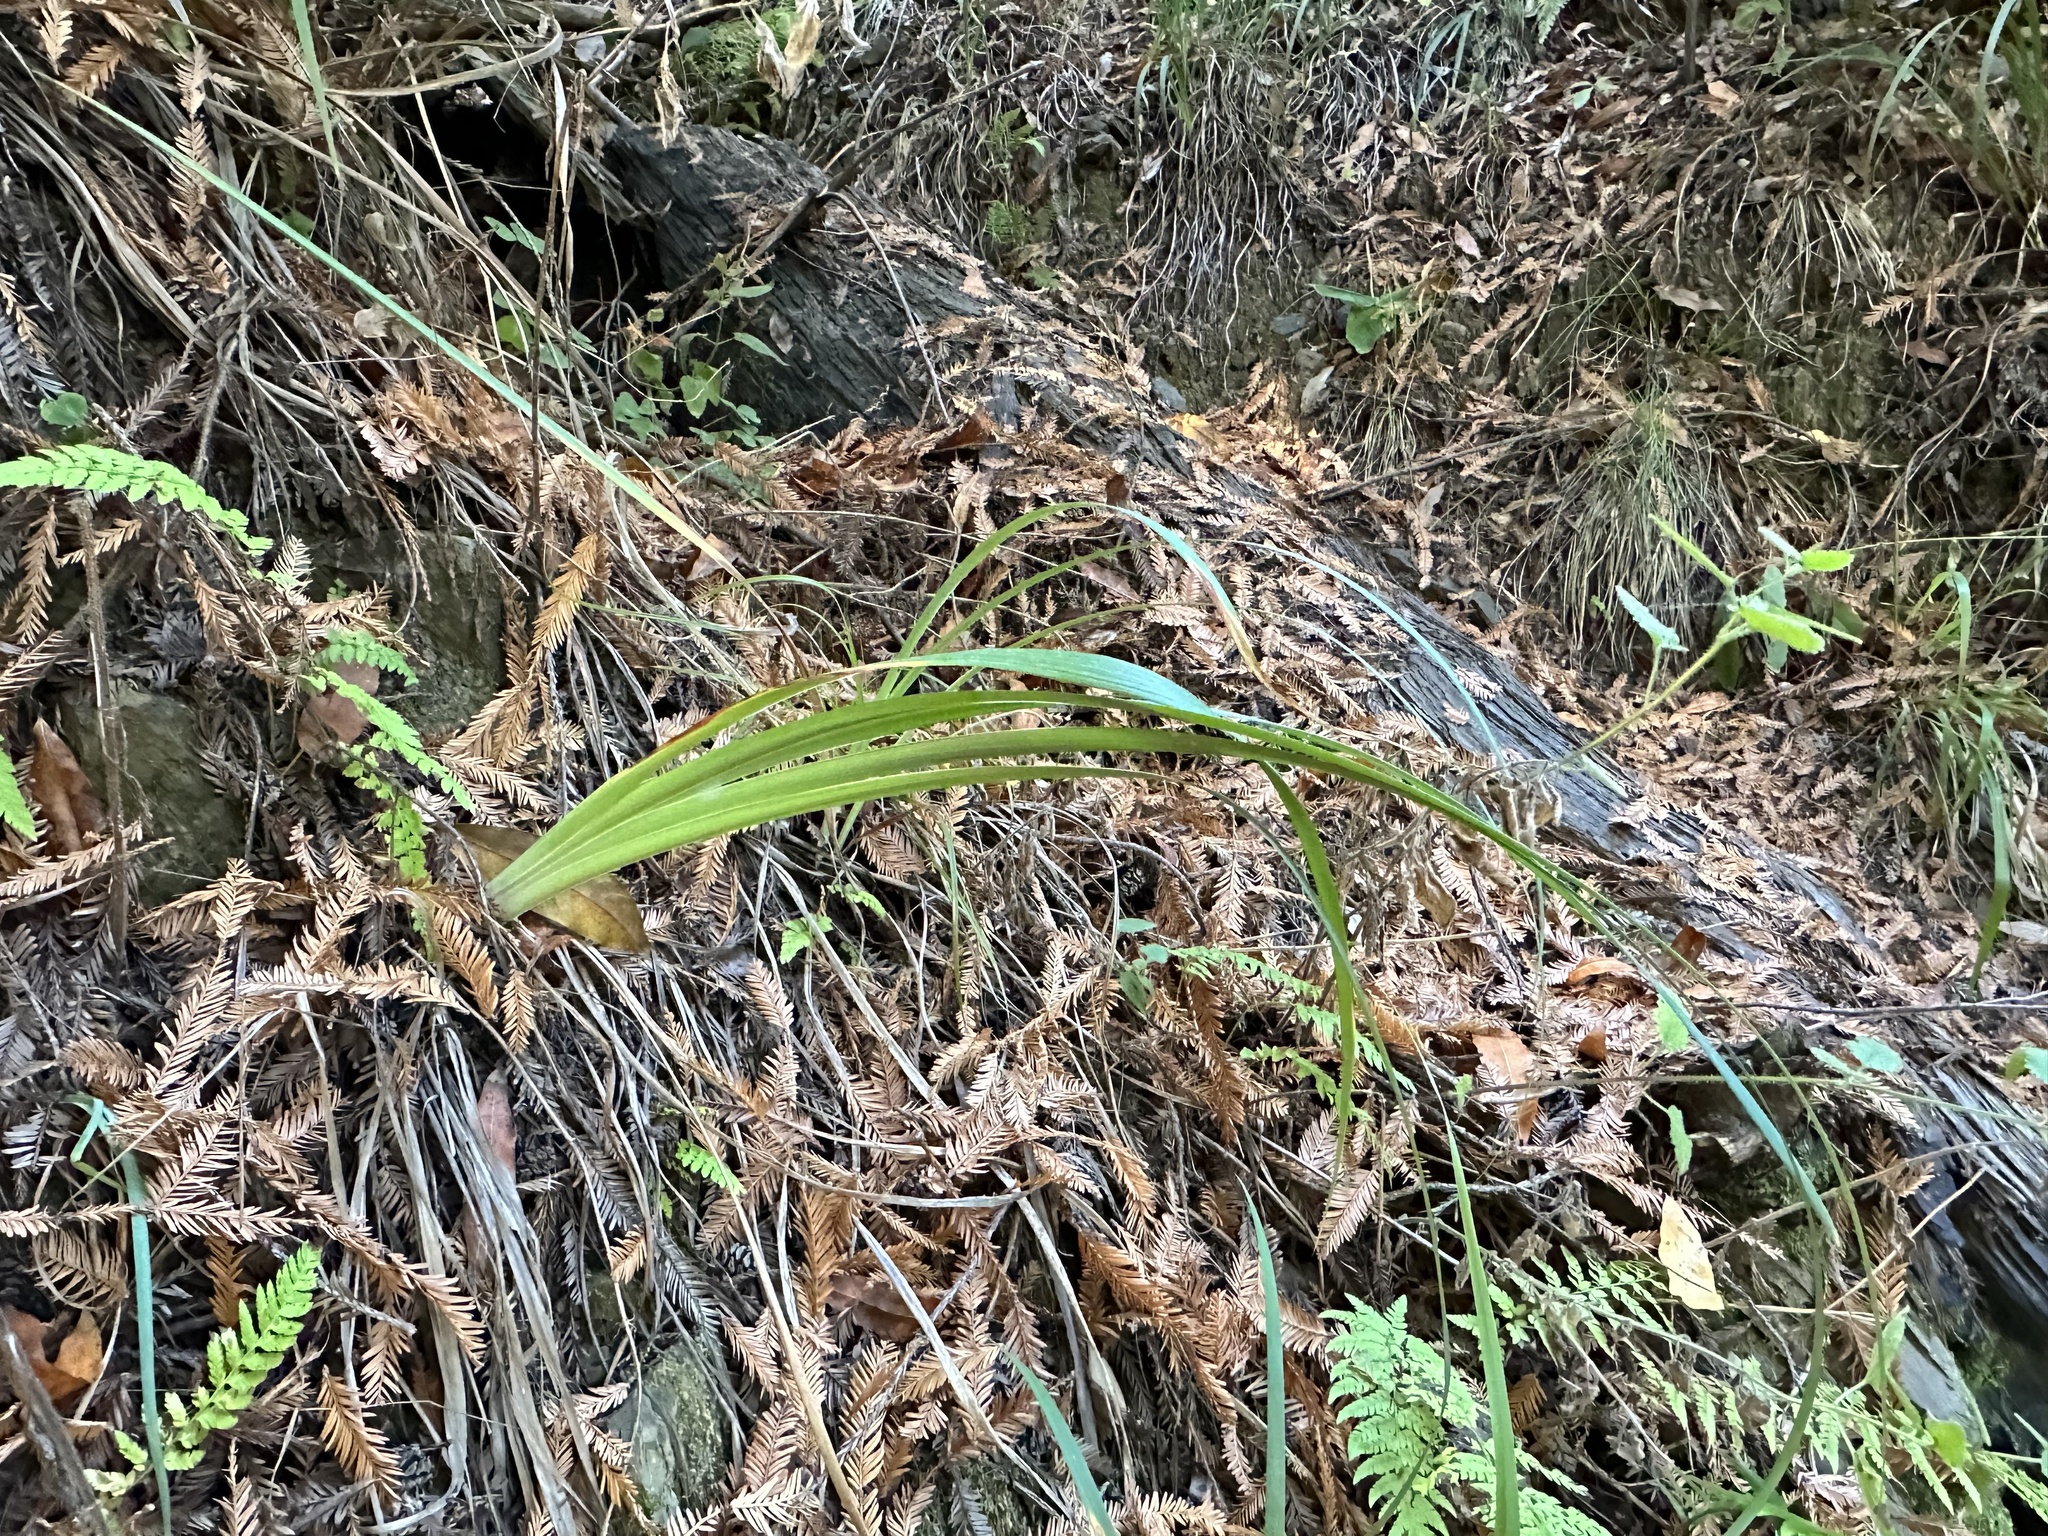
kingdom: Plantae
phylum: Tracheophyta
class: Liliopsida
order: Asparagales
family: Iridaceae
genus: Iris
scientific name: Iris douglasiana
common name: Marin iris
